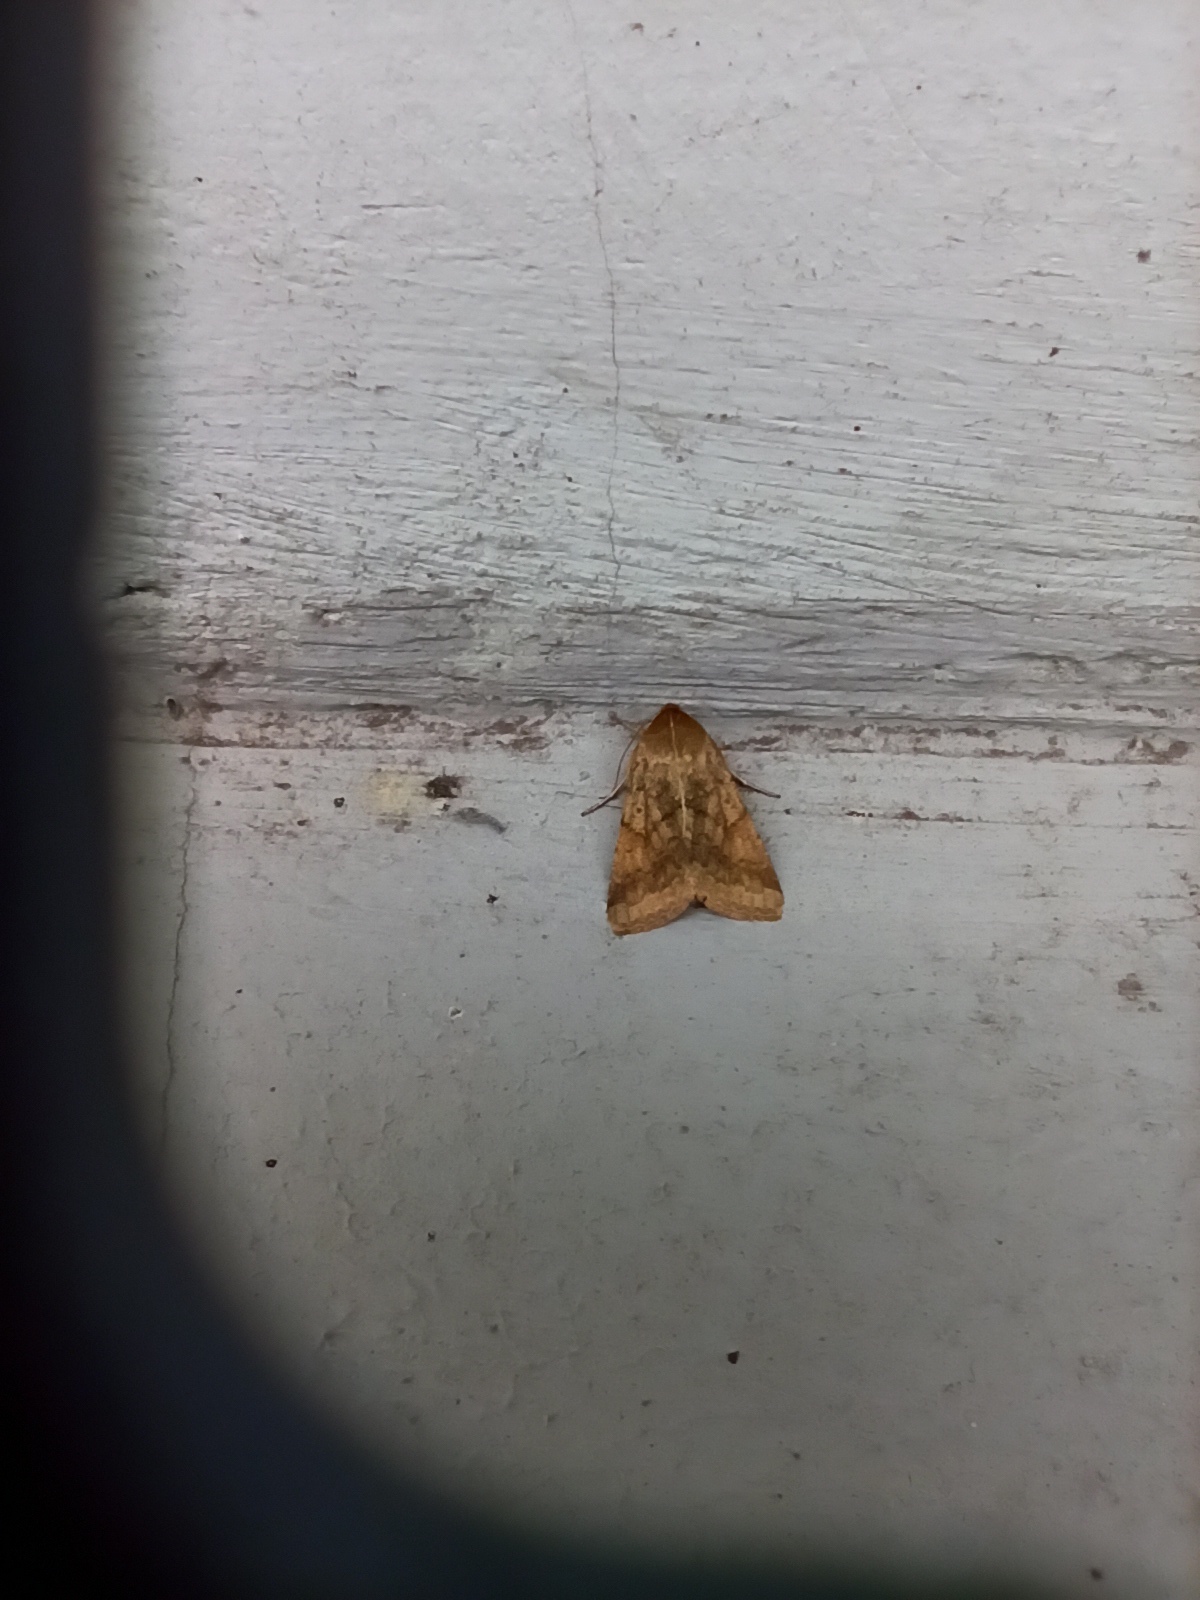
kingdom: Animalia
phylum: Arthropoda
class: Insecta
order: Lepidoptera
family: Noctuidae
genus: Helicoverpa
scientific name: Helicoverpa armigera
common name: Cotton bollworm
